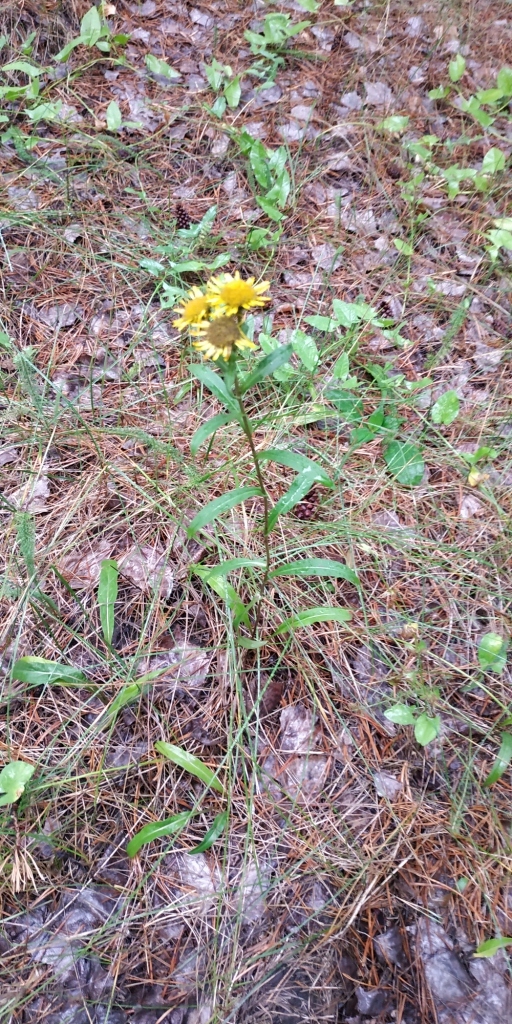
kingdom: Plantae
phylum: Tracheophyta
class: Magnoliopsida
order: Asterales
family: Asteraceae
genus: Pentanema
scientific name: Pentanema britannicum
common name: British elecampane
